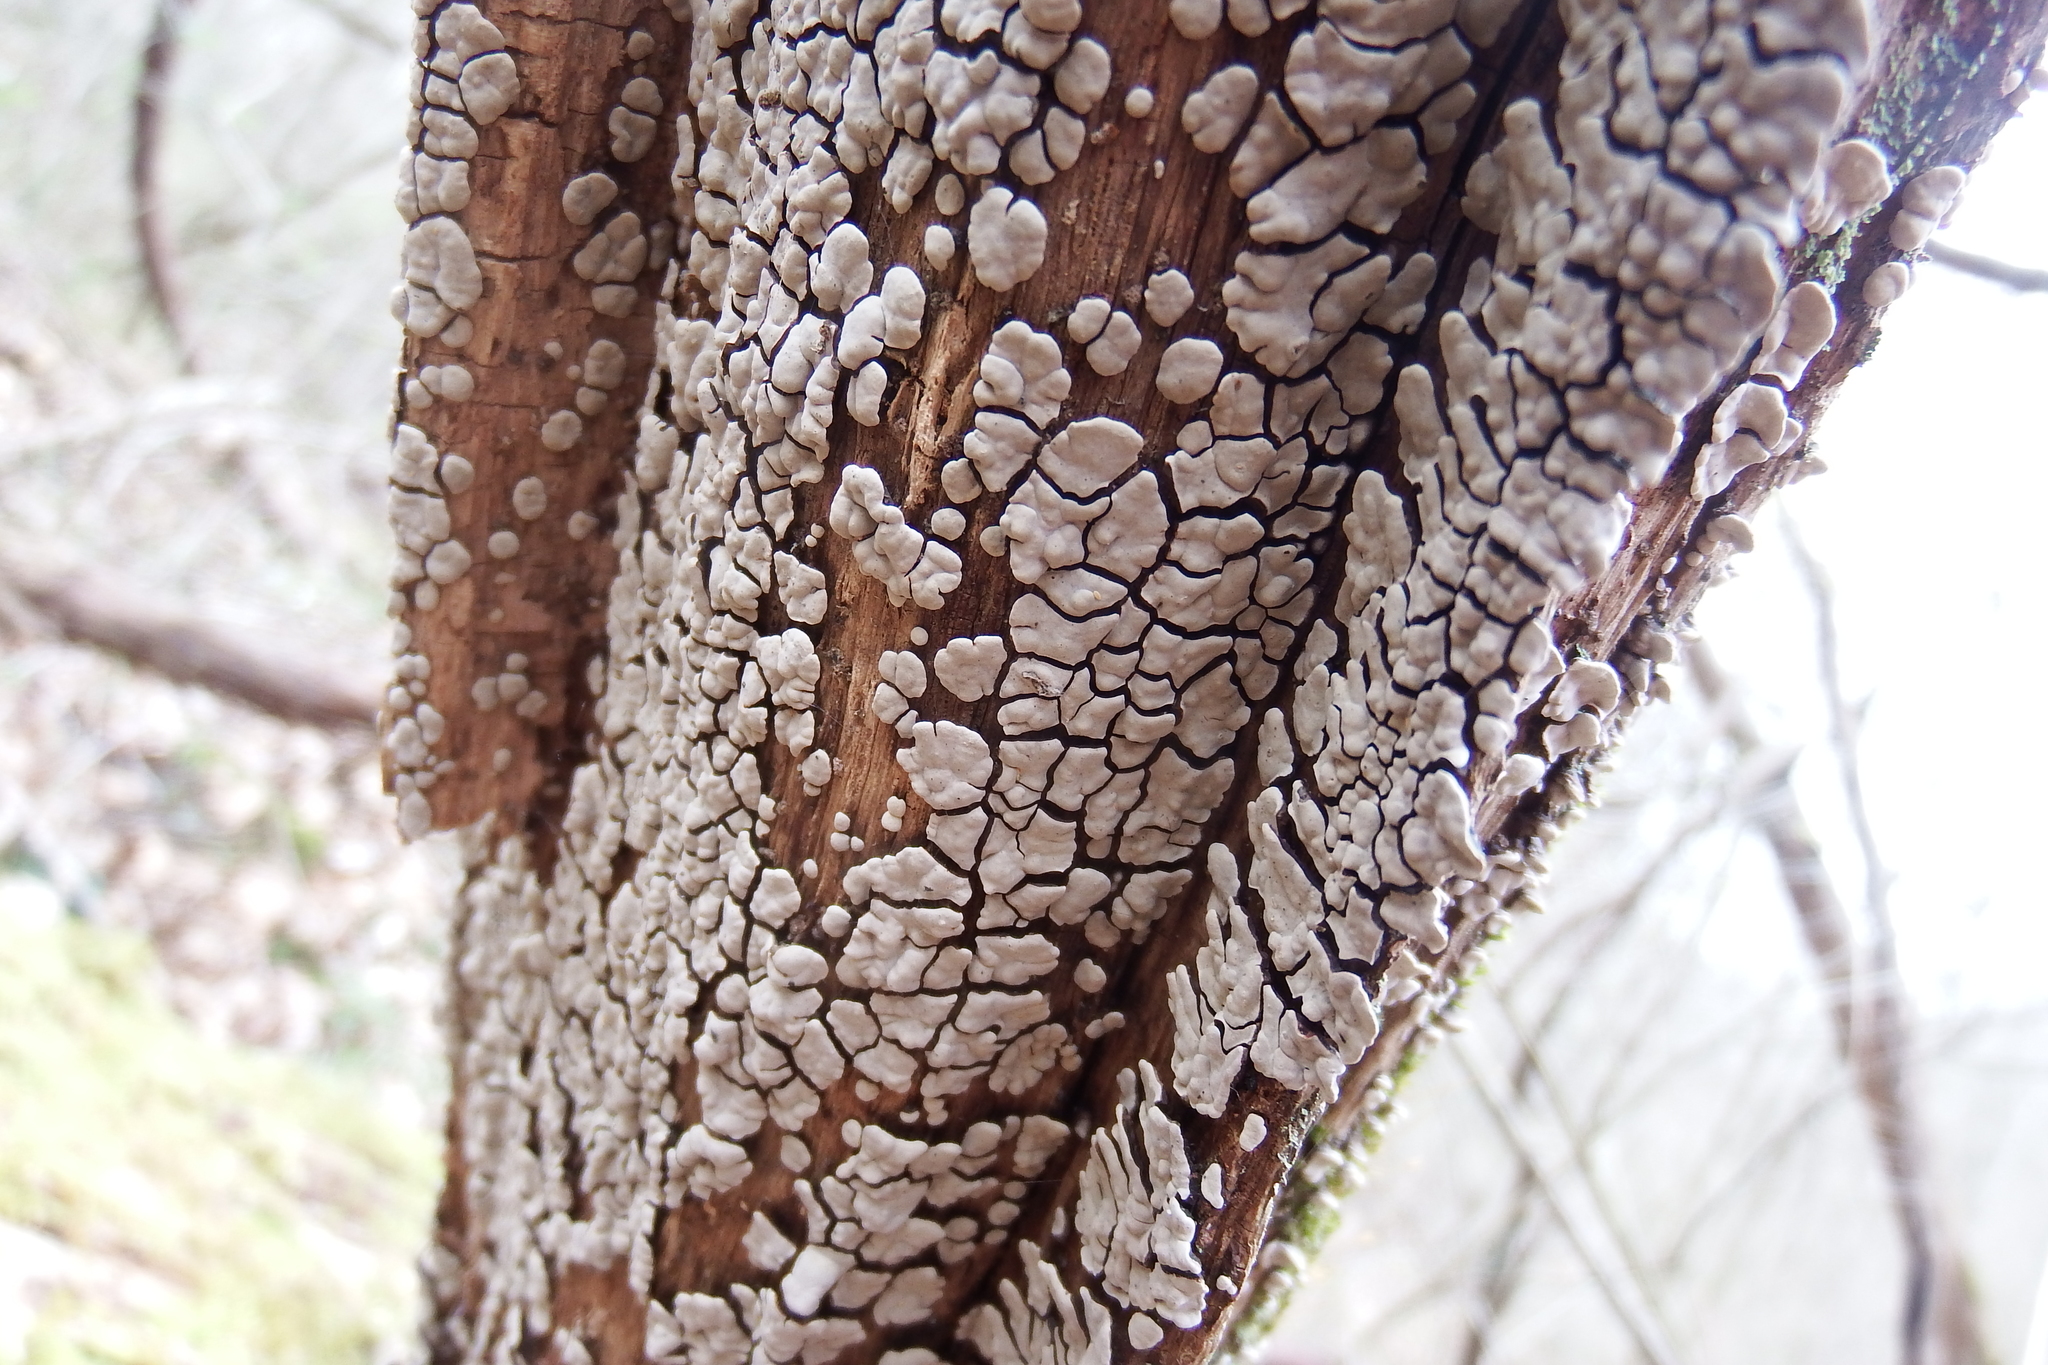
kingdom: Fungi
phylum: Basidiomycota
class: Agaricomycetes
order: Russulales
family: Stereaceae
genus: Xylobolus
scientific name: Xylobolus frustulatus
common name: Ceramic parchment
